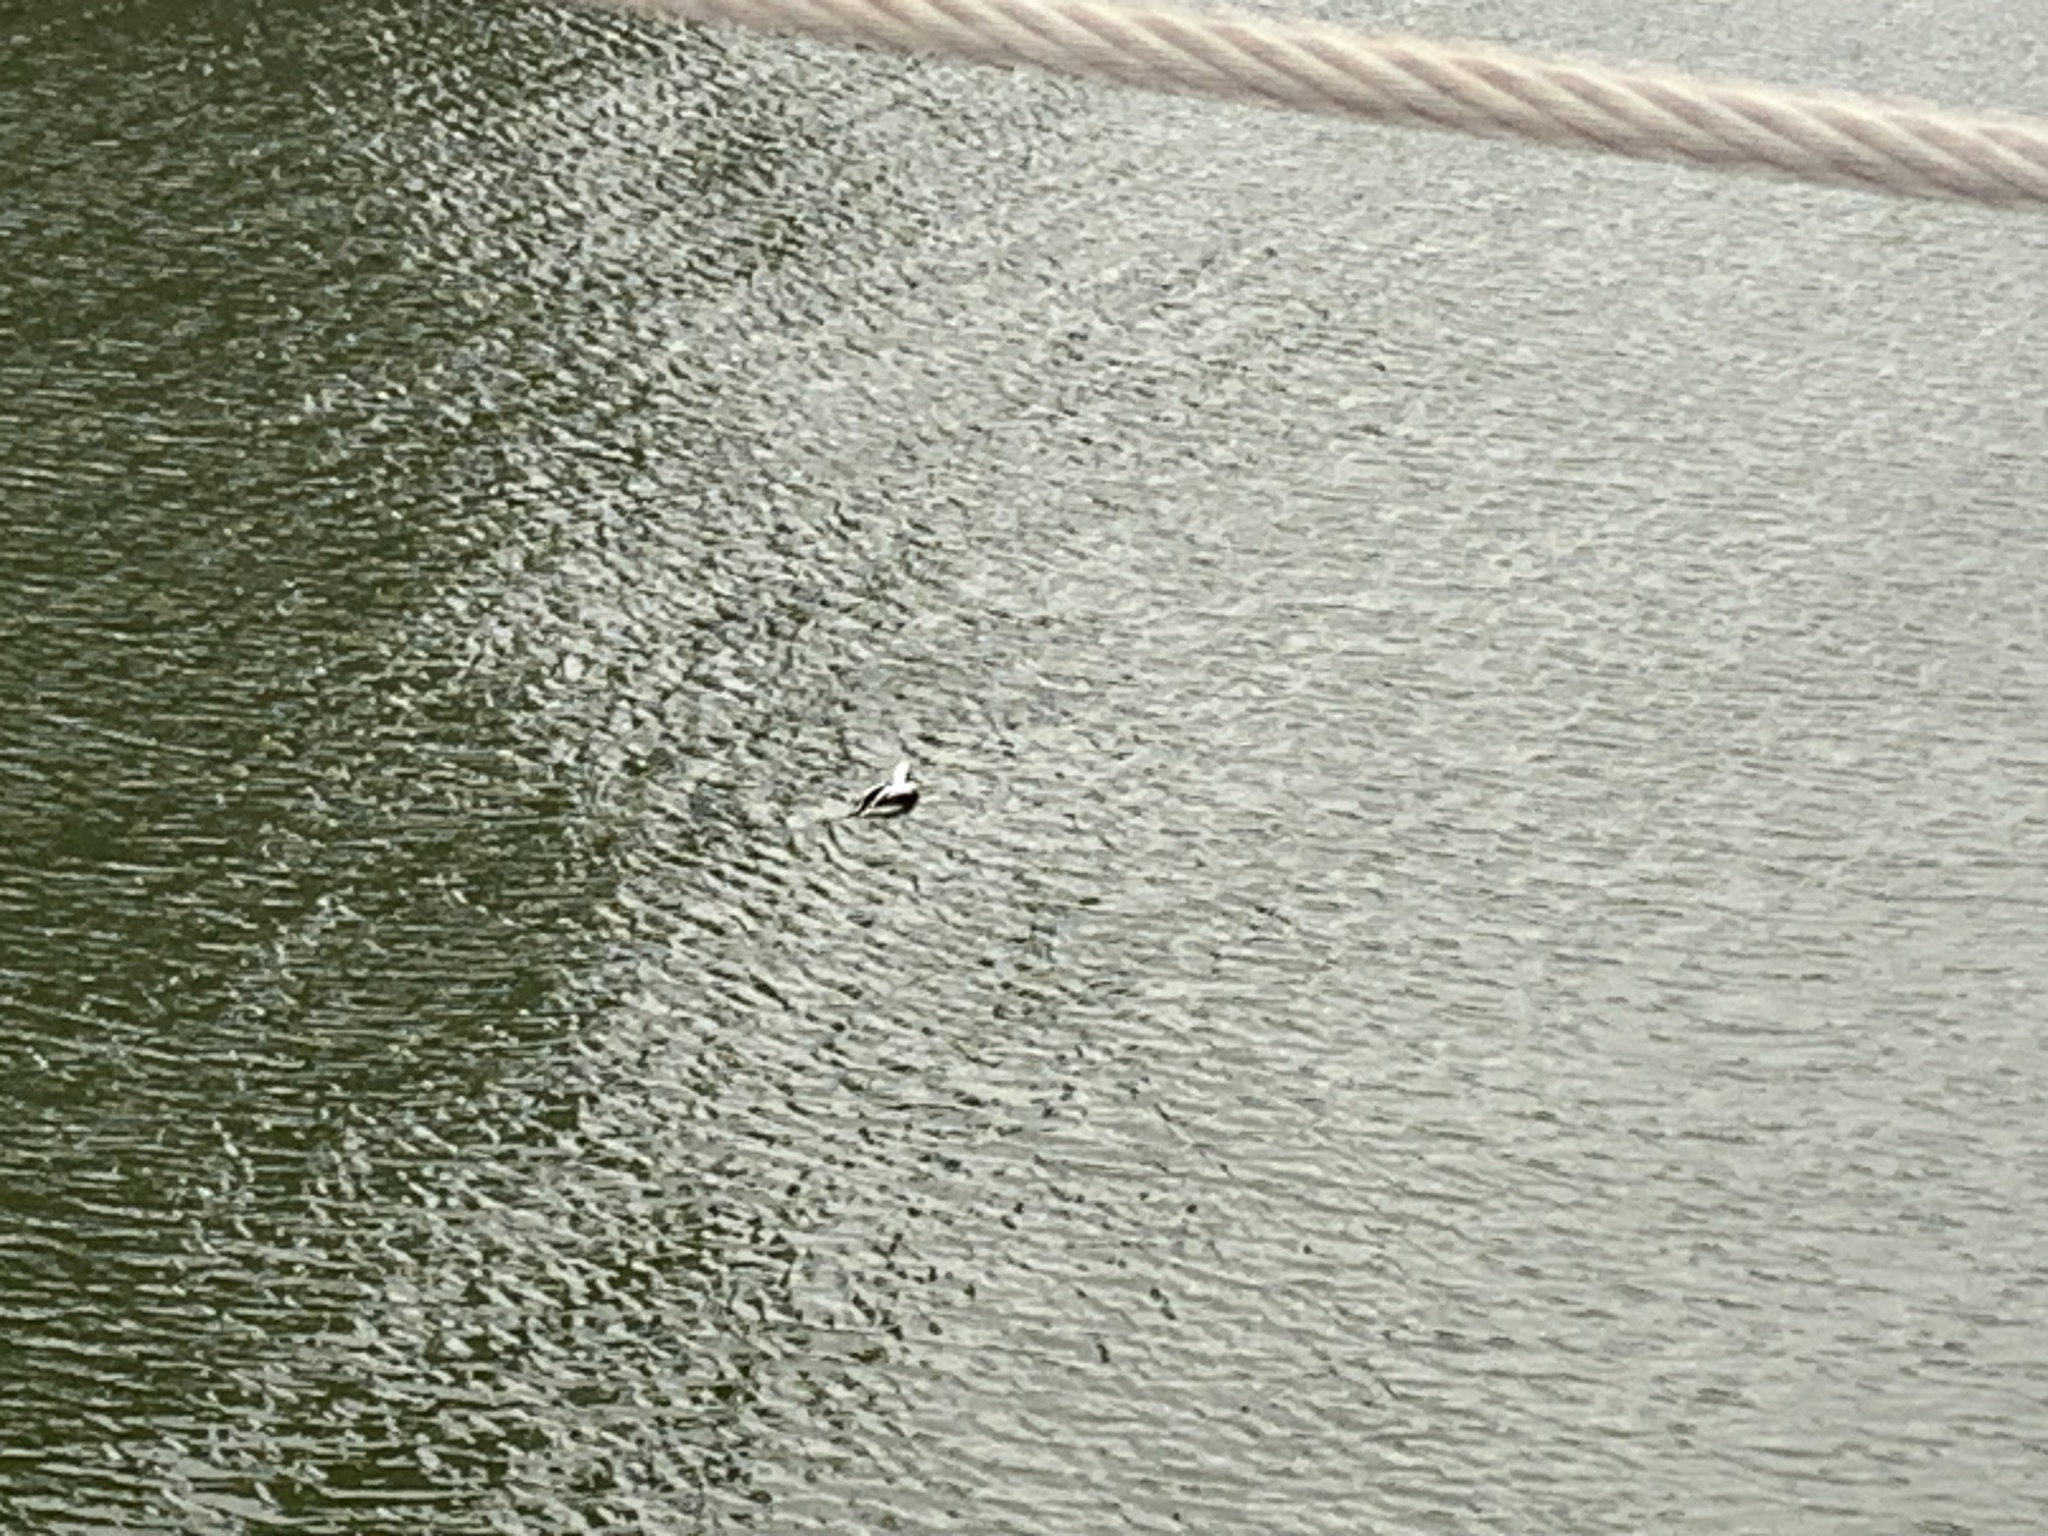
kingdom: Animalia
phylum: Chordata
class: Aves
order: Anseriformes
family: Anatidae
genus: Clangula
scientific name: Clangula hyemalis
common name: Long-tailed duck
